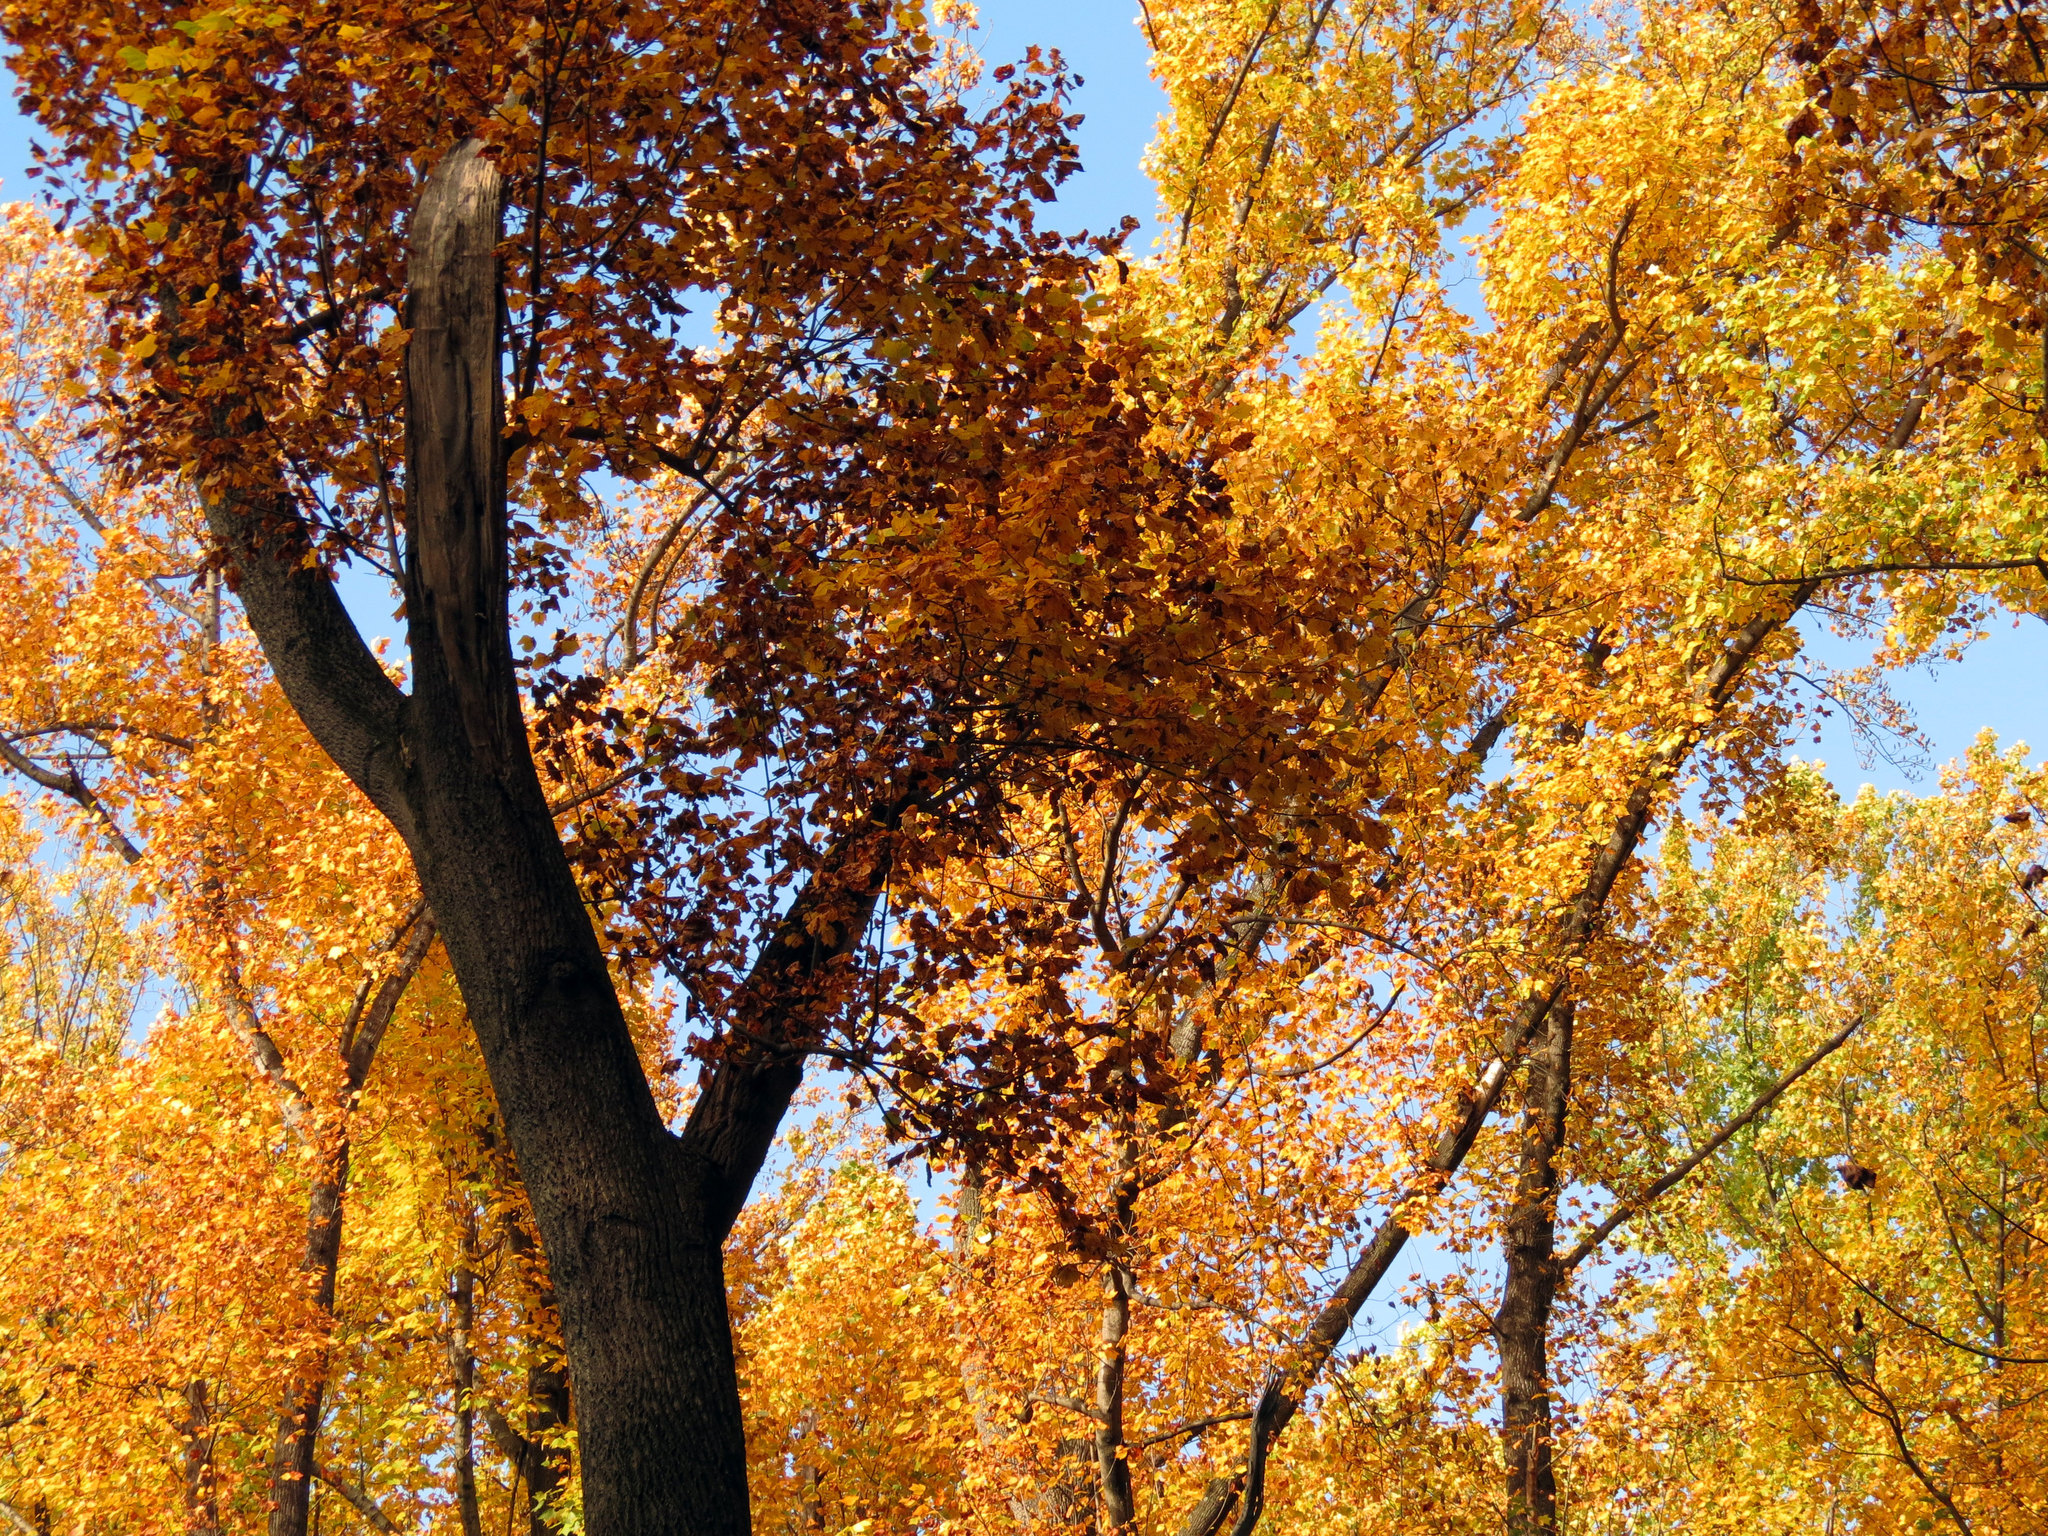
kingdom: Plantae
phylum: Tracheophyta
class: Magnoliopsida
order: Magnoliales
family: Magnoliaceae
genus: Liriodendron
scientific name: Liriodendron tulipifera
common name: Tulip tree
